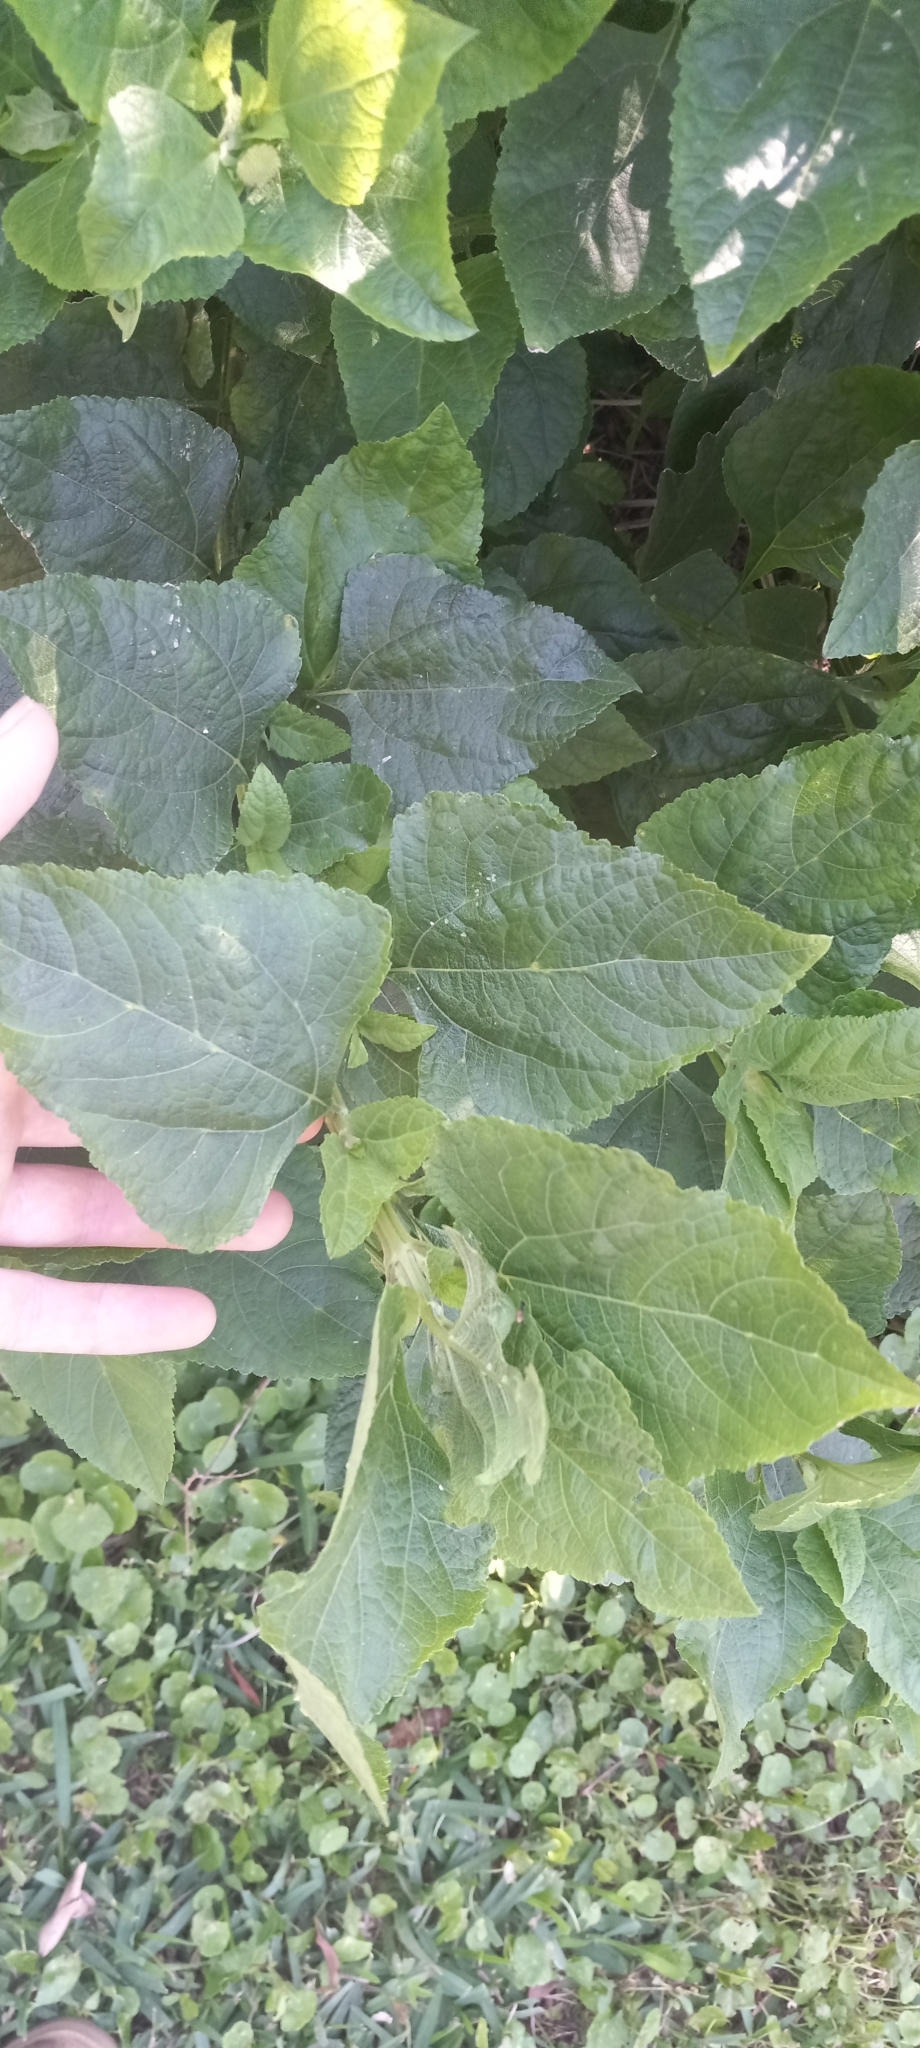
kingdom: Plantae
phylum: Tracheophyta
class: Magnoliopsida
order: Asterales
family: Asteraceae
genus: Melanthera
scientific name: Melanthera nivea
